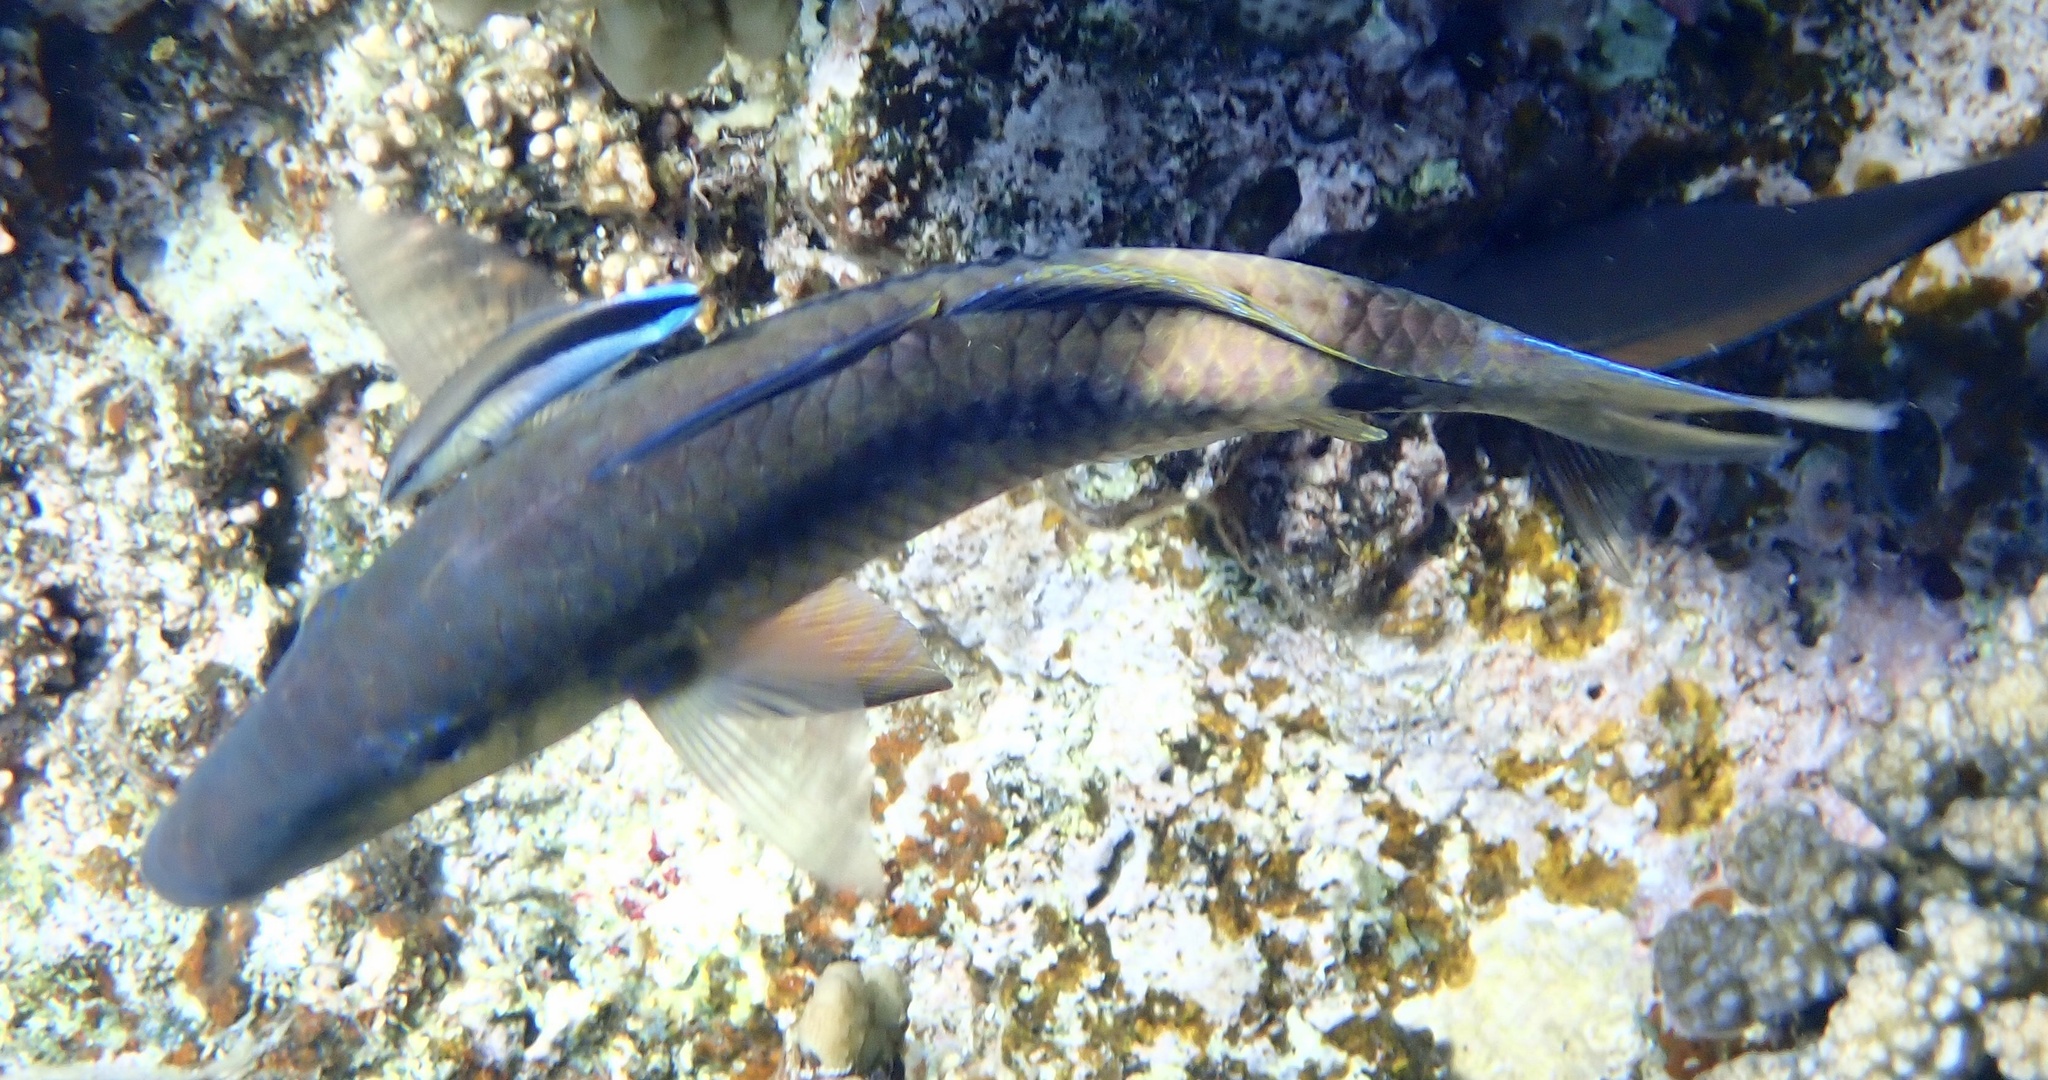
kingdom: Animalia
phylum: Chordata
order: Perciformes
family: Mullidae
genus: Parupeneus
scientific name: Parupeneus macronemus
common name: Long-barbel goatfish
